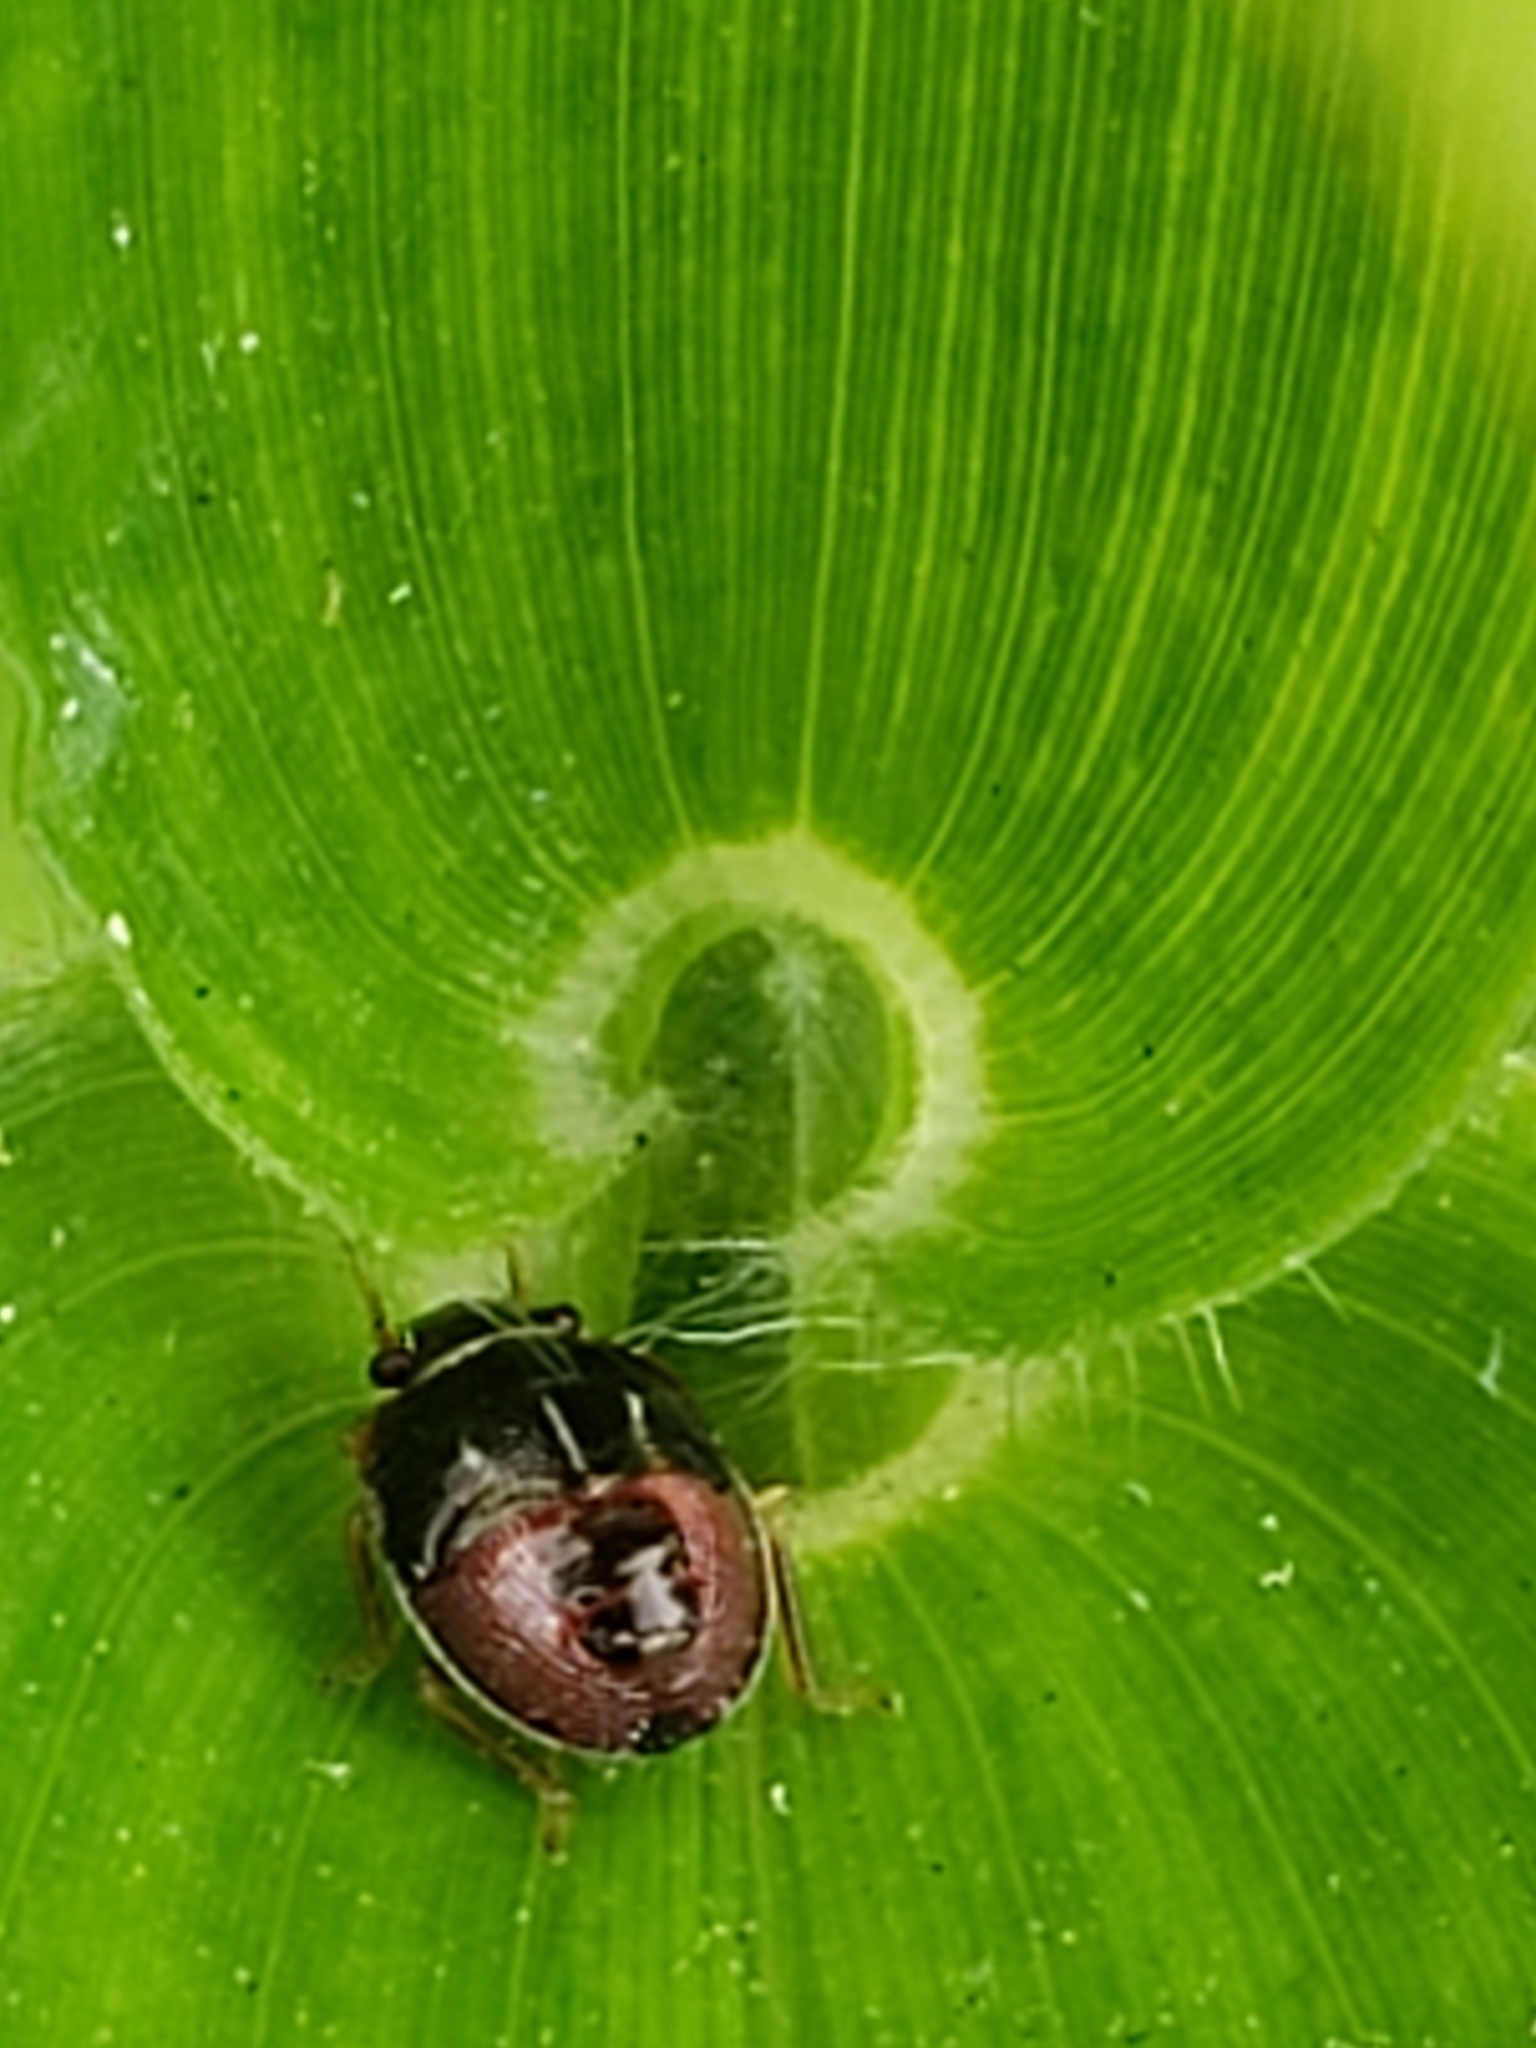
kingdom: Animalia
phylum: Arthropoda
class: Insecta
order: Hemiptera
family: Pentatomidae
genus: Mormidea
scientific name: Mormidea lugens
